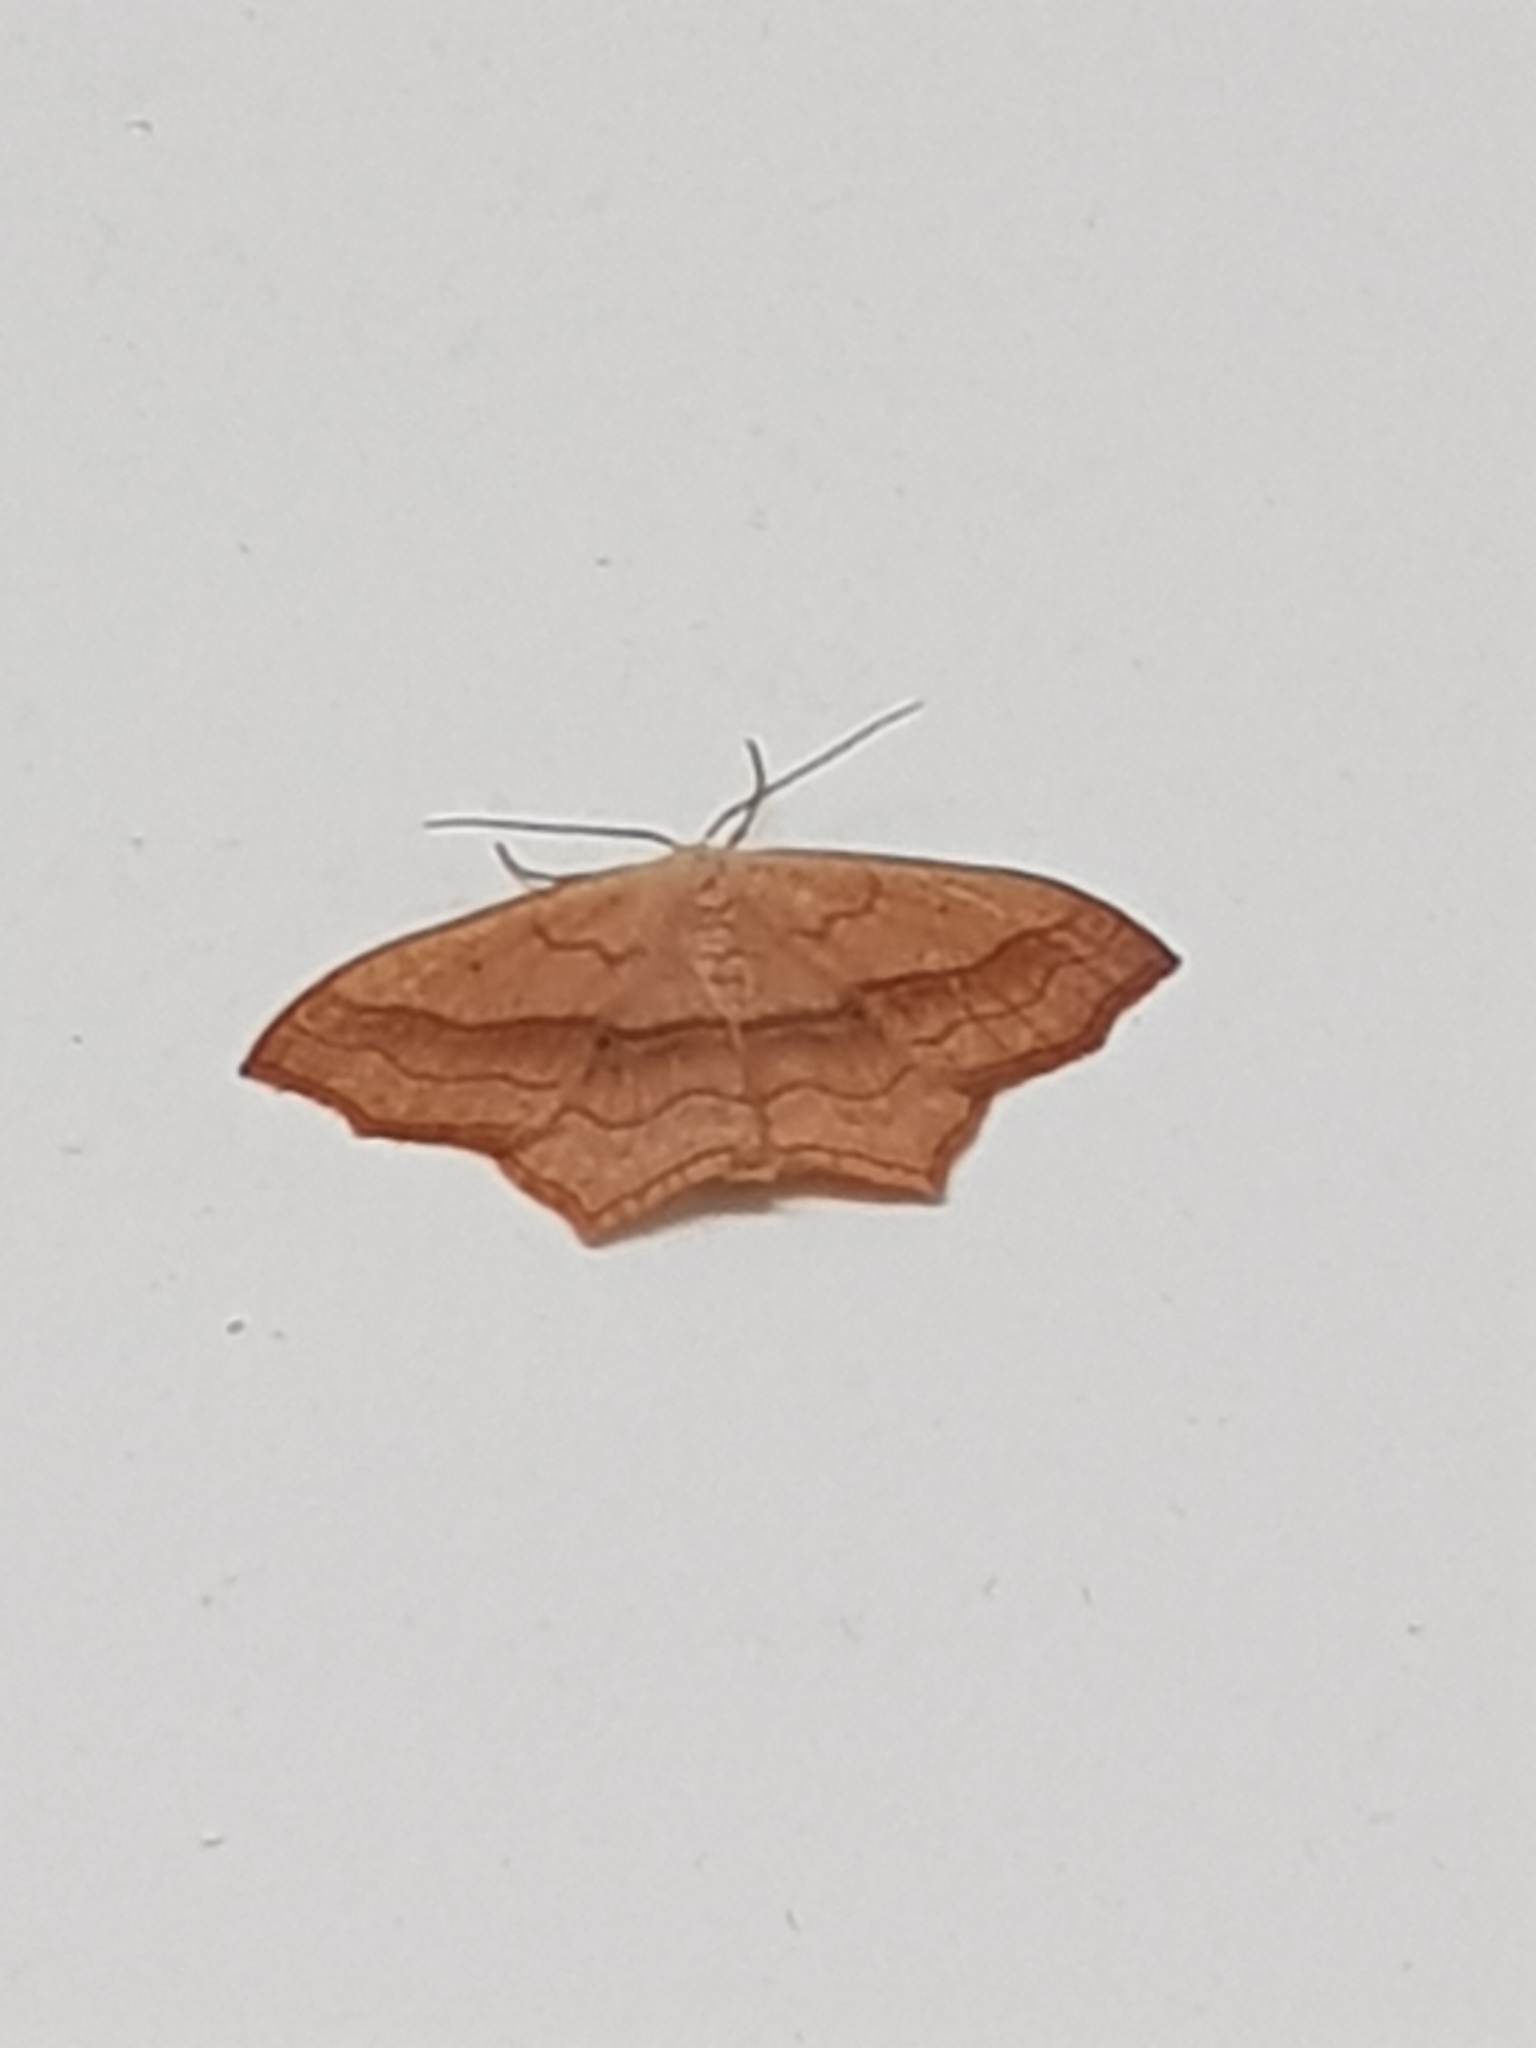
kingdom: Animalia
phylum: Arthropoda
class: Insecta
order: Lepidoptera
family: Geometridae
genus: Scopula
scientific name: Scopula imitaria
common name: Small blood-vein
